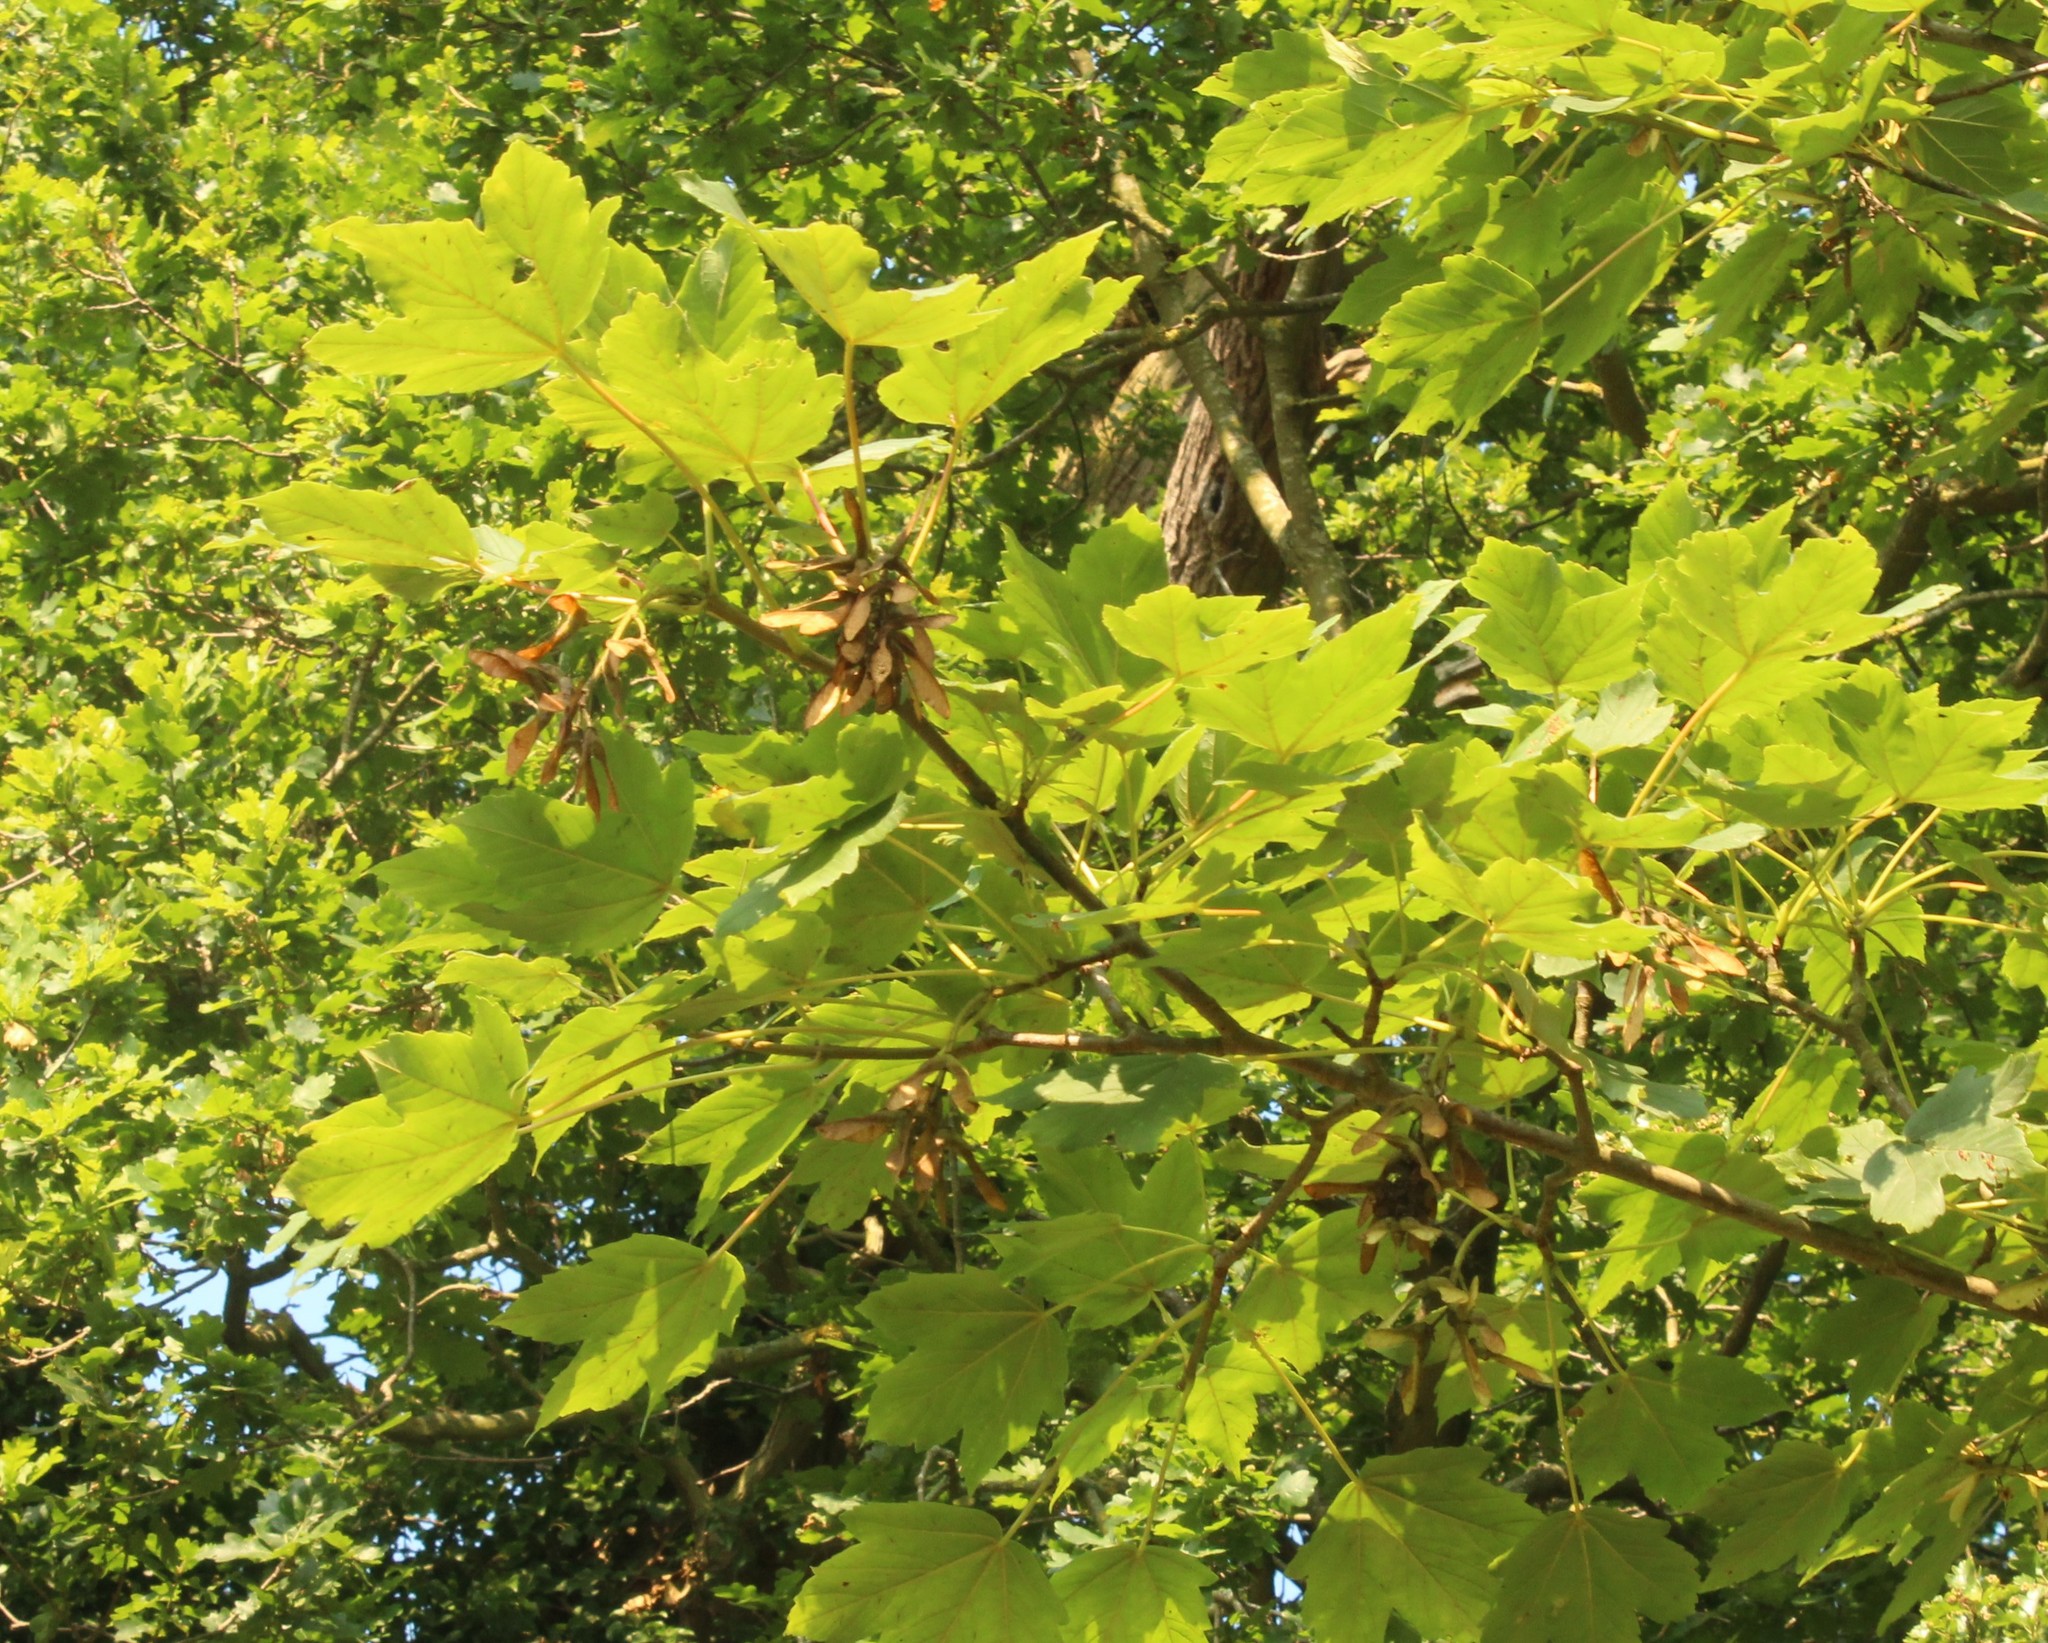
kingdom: Plantae
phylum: Tracheophyta
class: Magnoliopsida
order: Sapindales
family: Sapindaceae
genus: Acer
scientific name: Acer pseudoplatanus
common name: Sycamore
